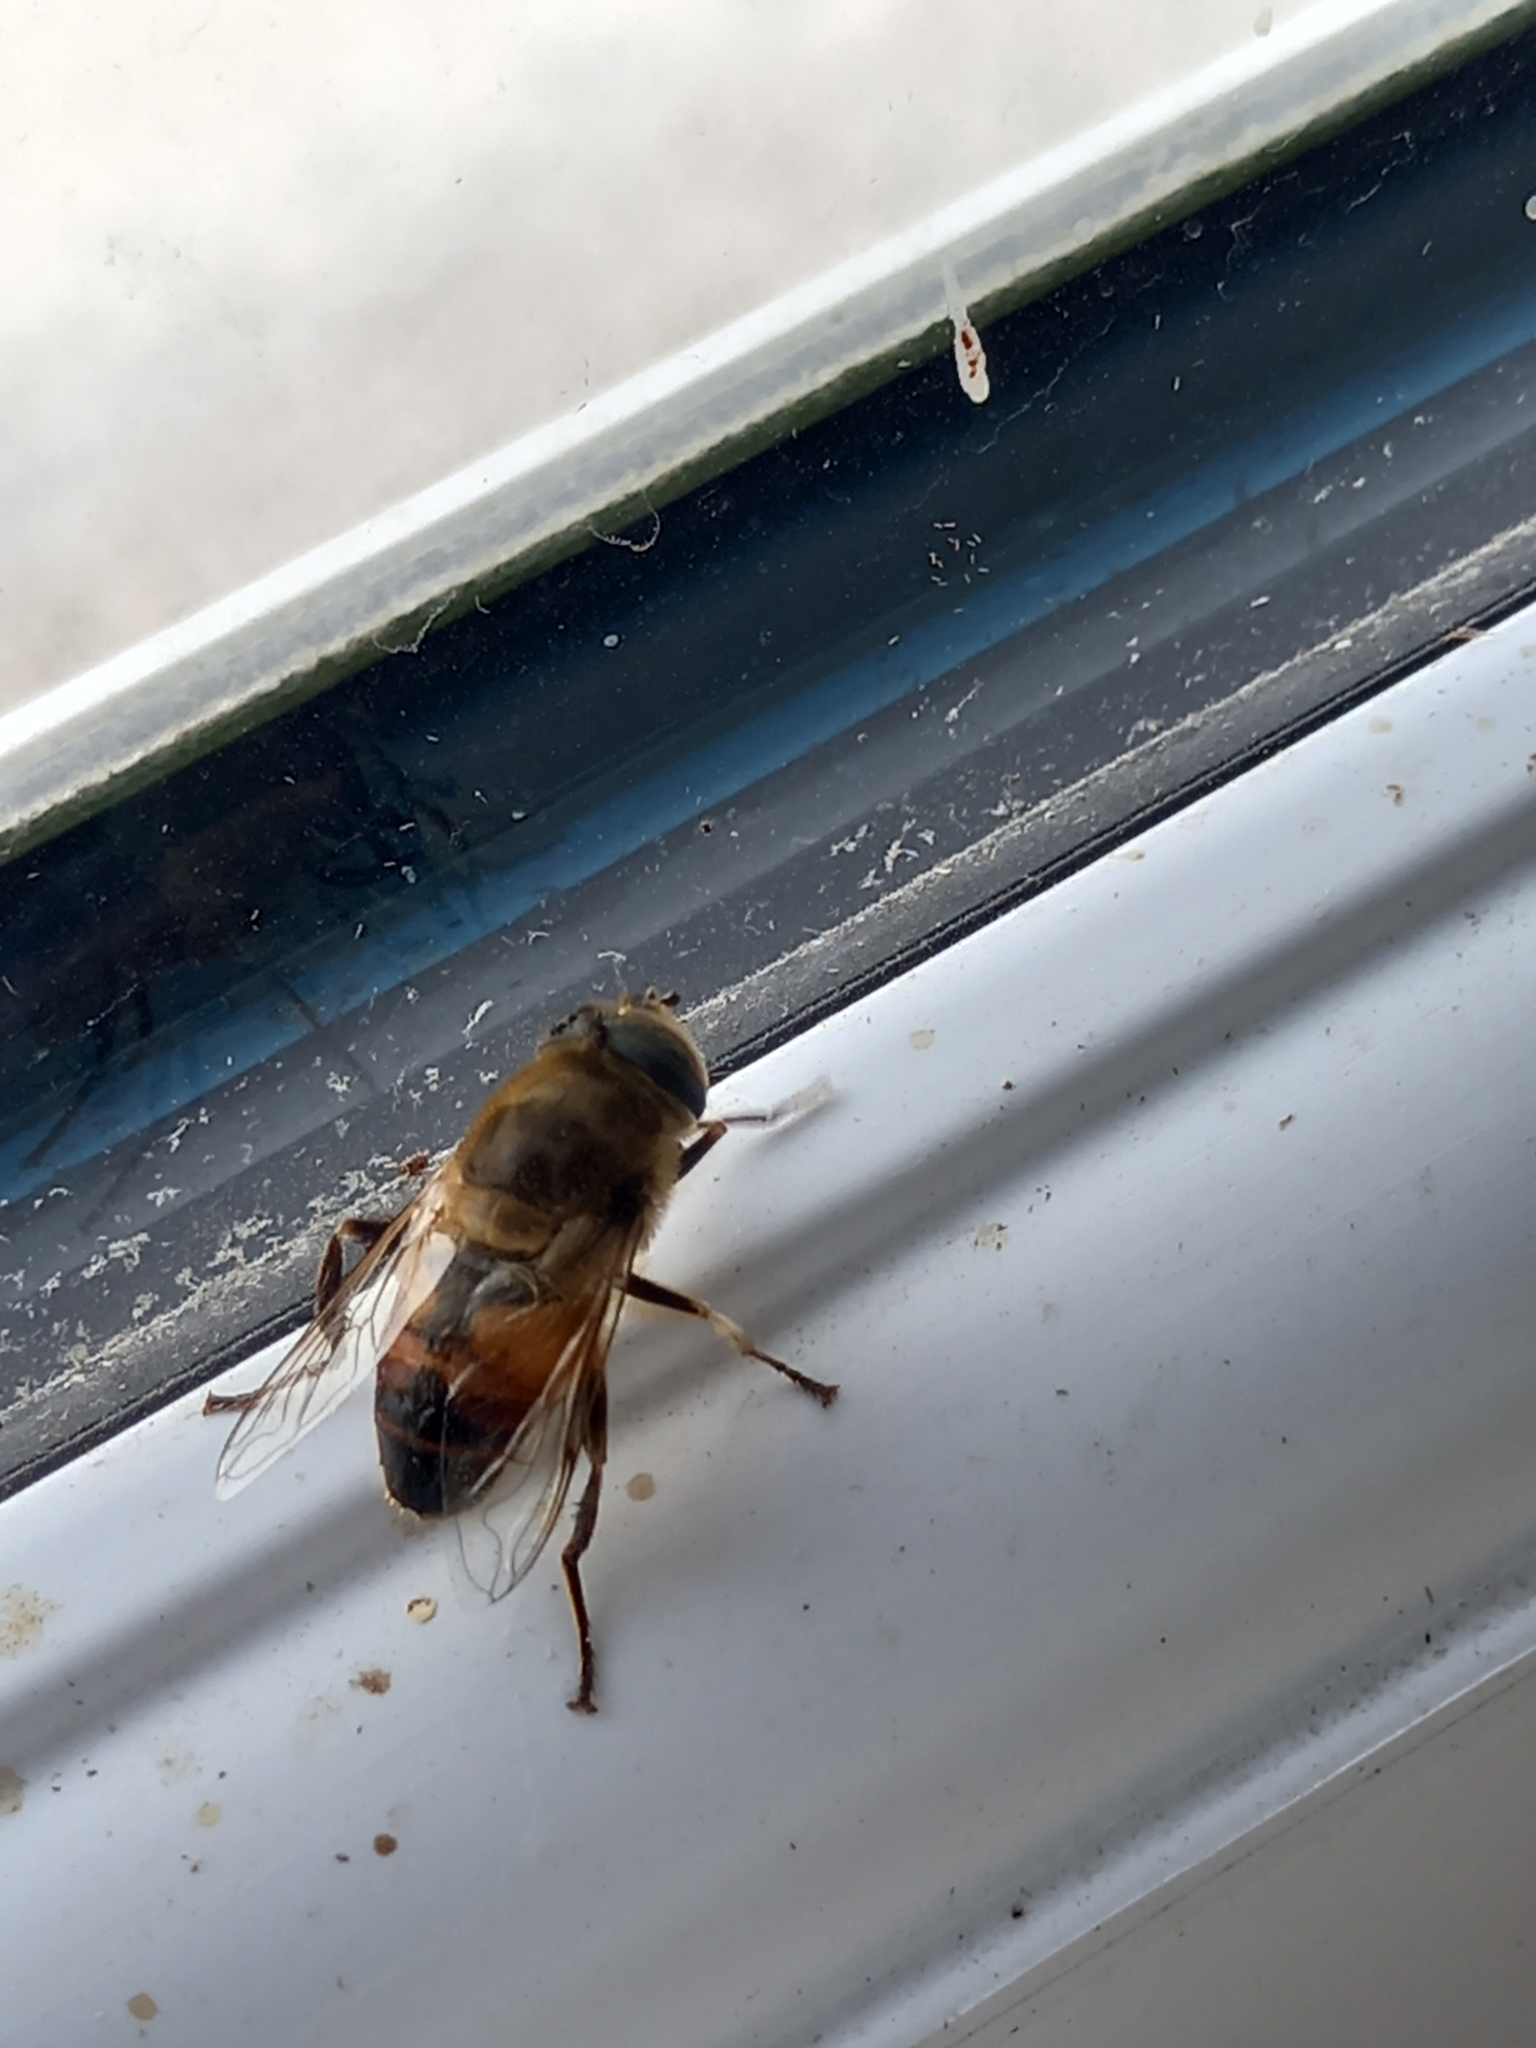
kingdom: Animalia
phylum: Arthropoda
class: Insecta
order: Diptera
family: Syrphidae
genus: Eristalis
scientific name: Eristalis tenax
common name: Drone fly
